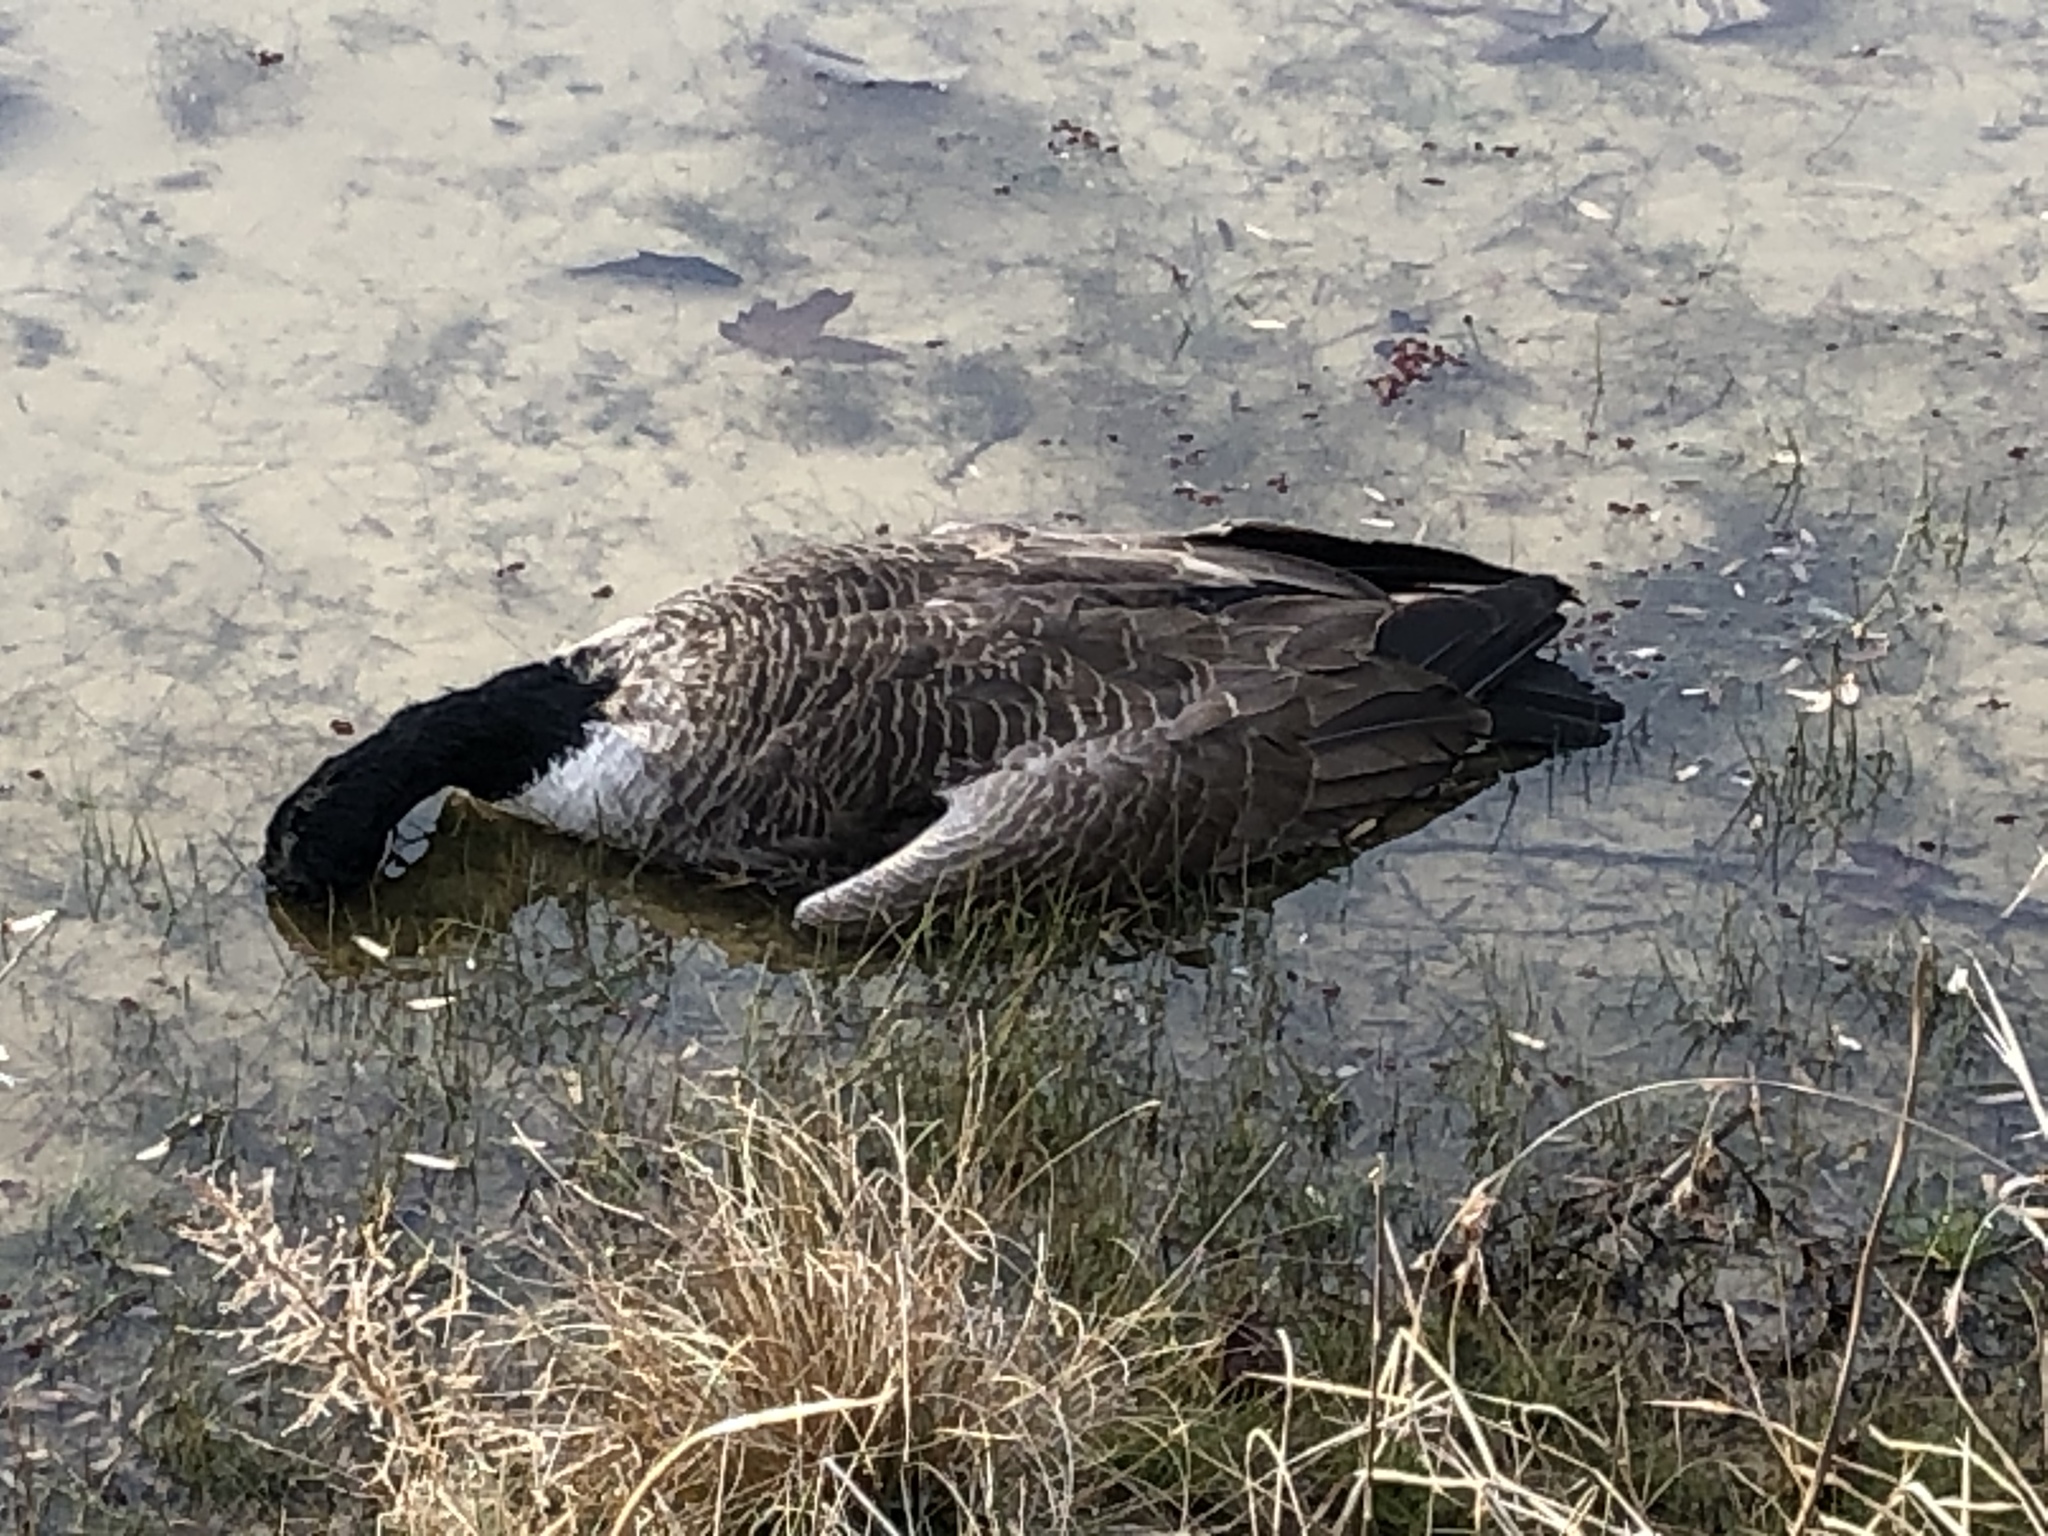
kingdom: Animalia
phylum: Chordata
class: Aves
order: Anseriformes
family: Anatidae
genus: Branta
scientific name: Branta canadensis
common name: Canada goose
